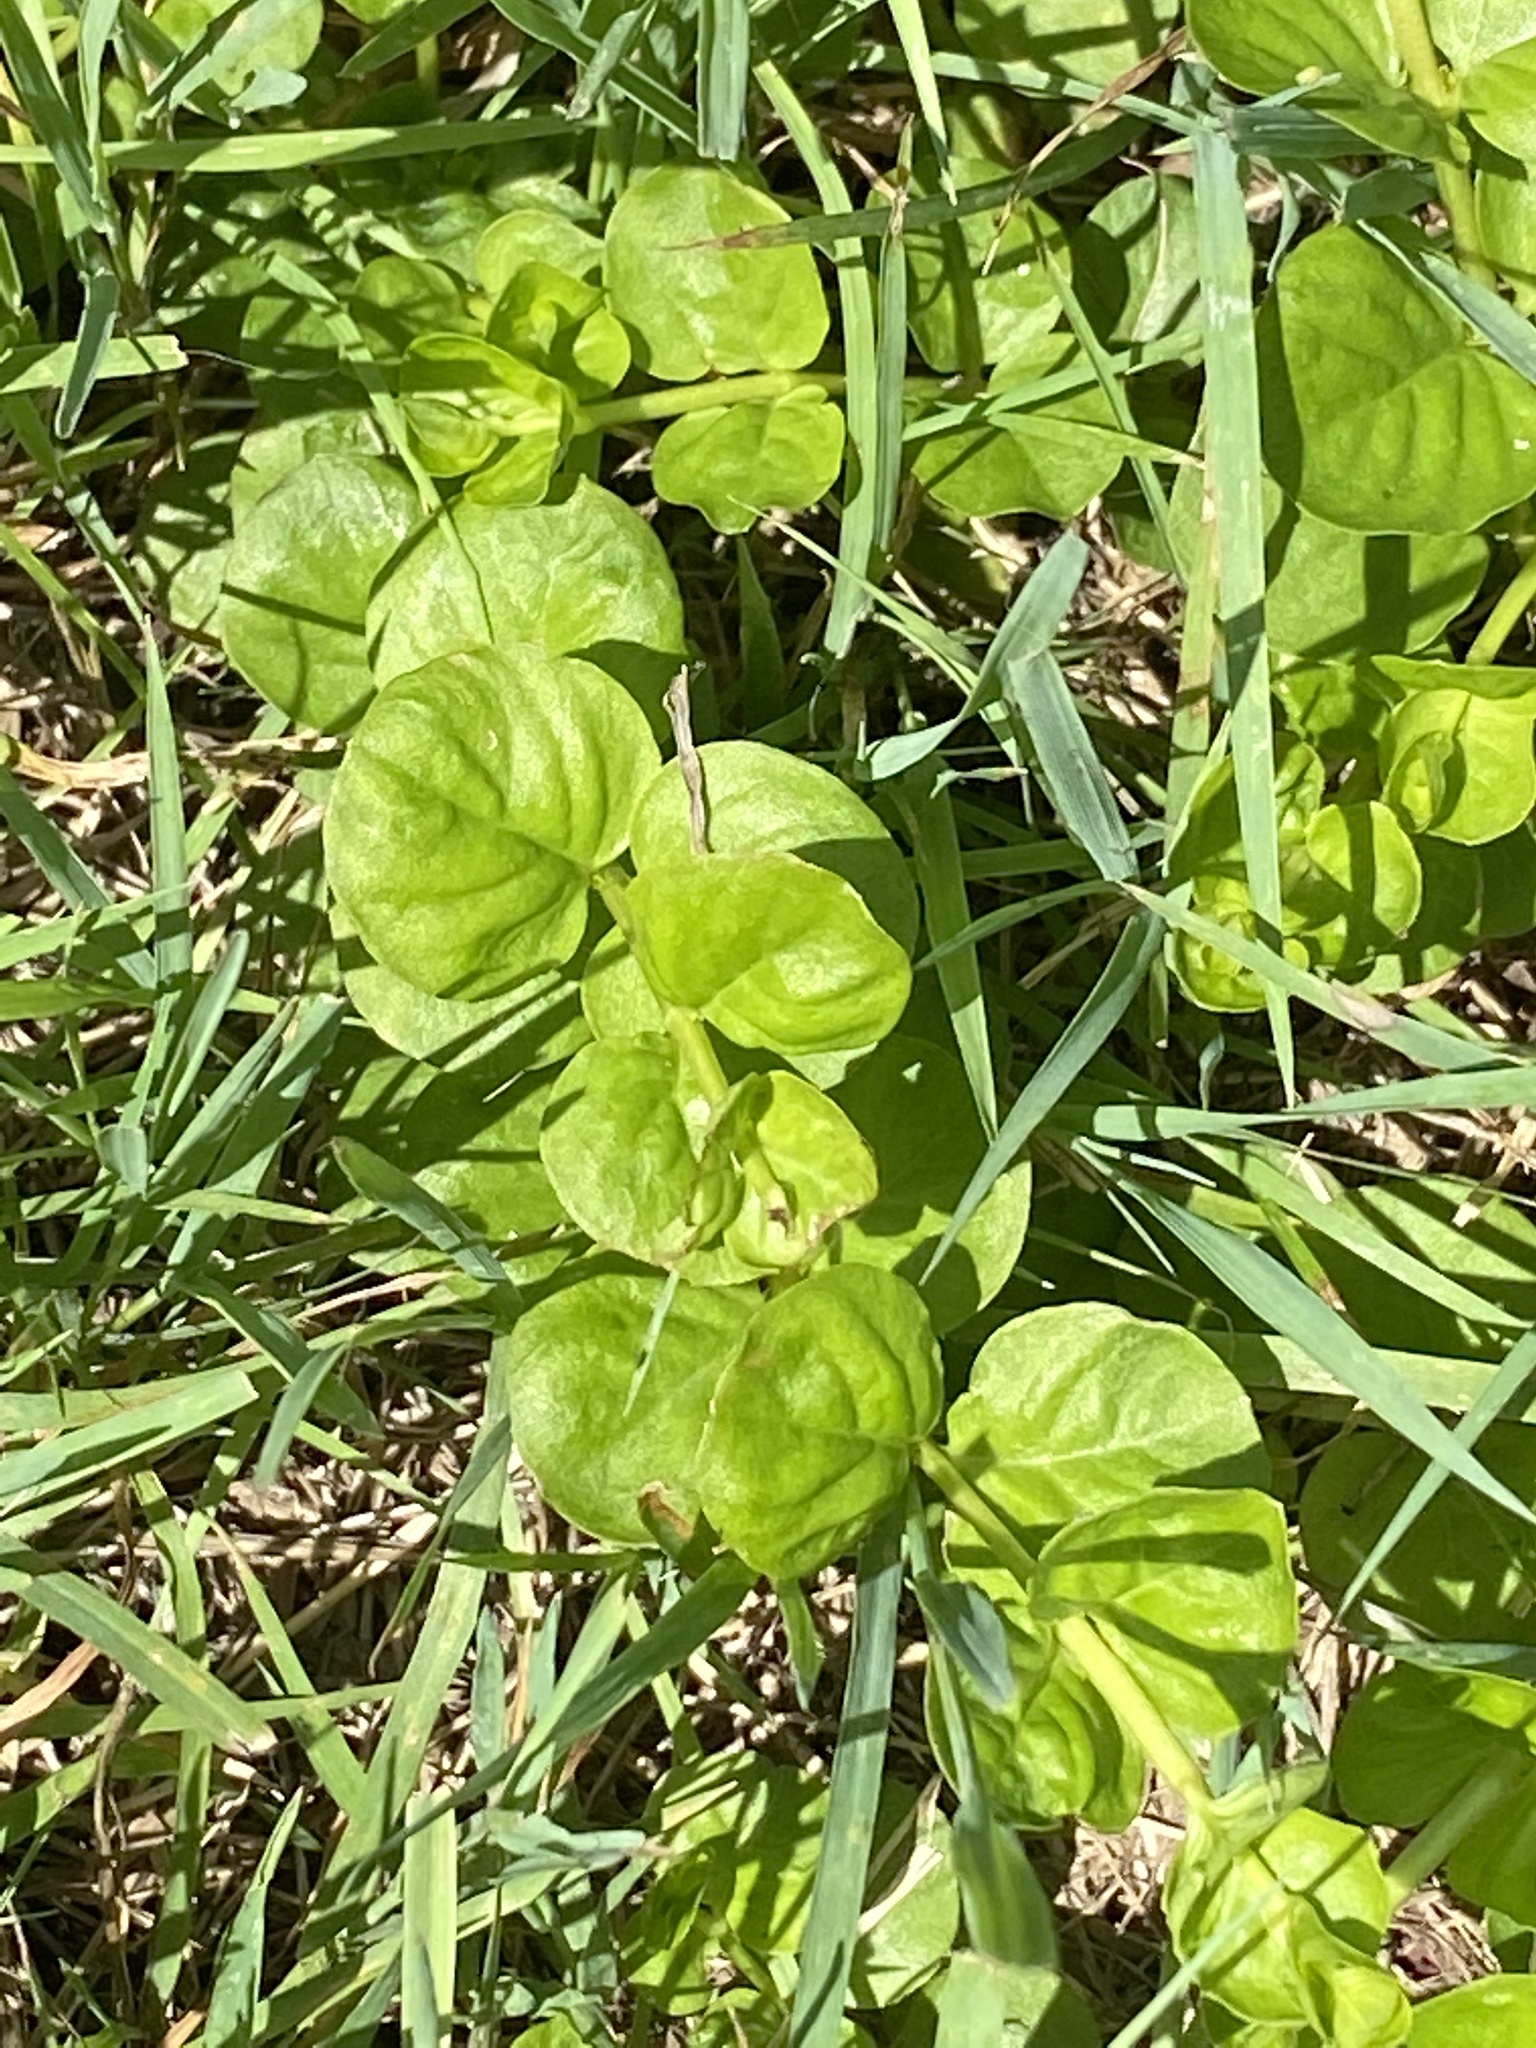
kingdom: Plantae
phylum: Tracheophyta
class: Magnoliopsida
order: Ericales
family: Primulaceae
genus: Lysimachia
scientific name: Lysimachia nummularia
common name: Moneywort
